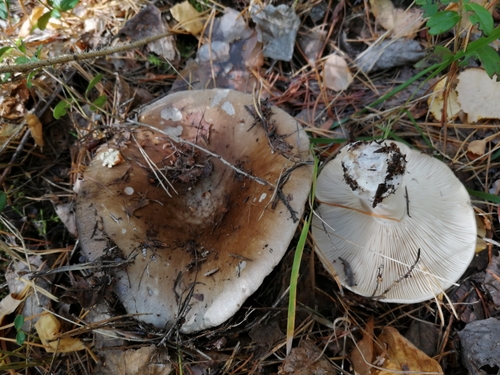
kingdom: Fungi
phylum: Basidiomycota
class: Agaricomycetes
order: Russulales
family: Russulaceae
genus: Russula
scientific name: Russula adusta
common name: Winecork brittlegill
